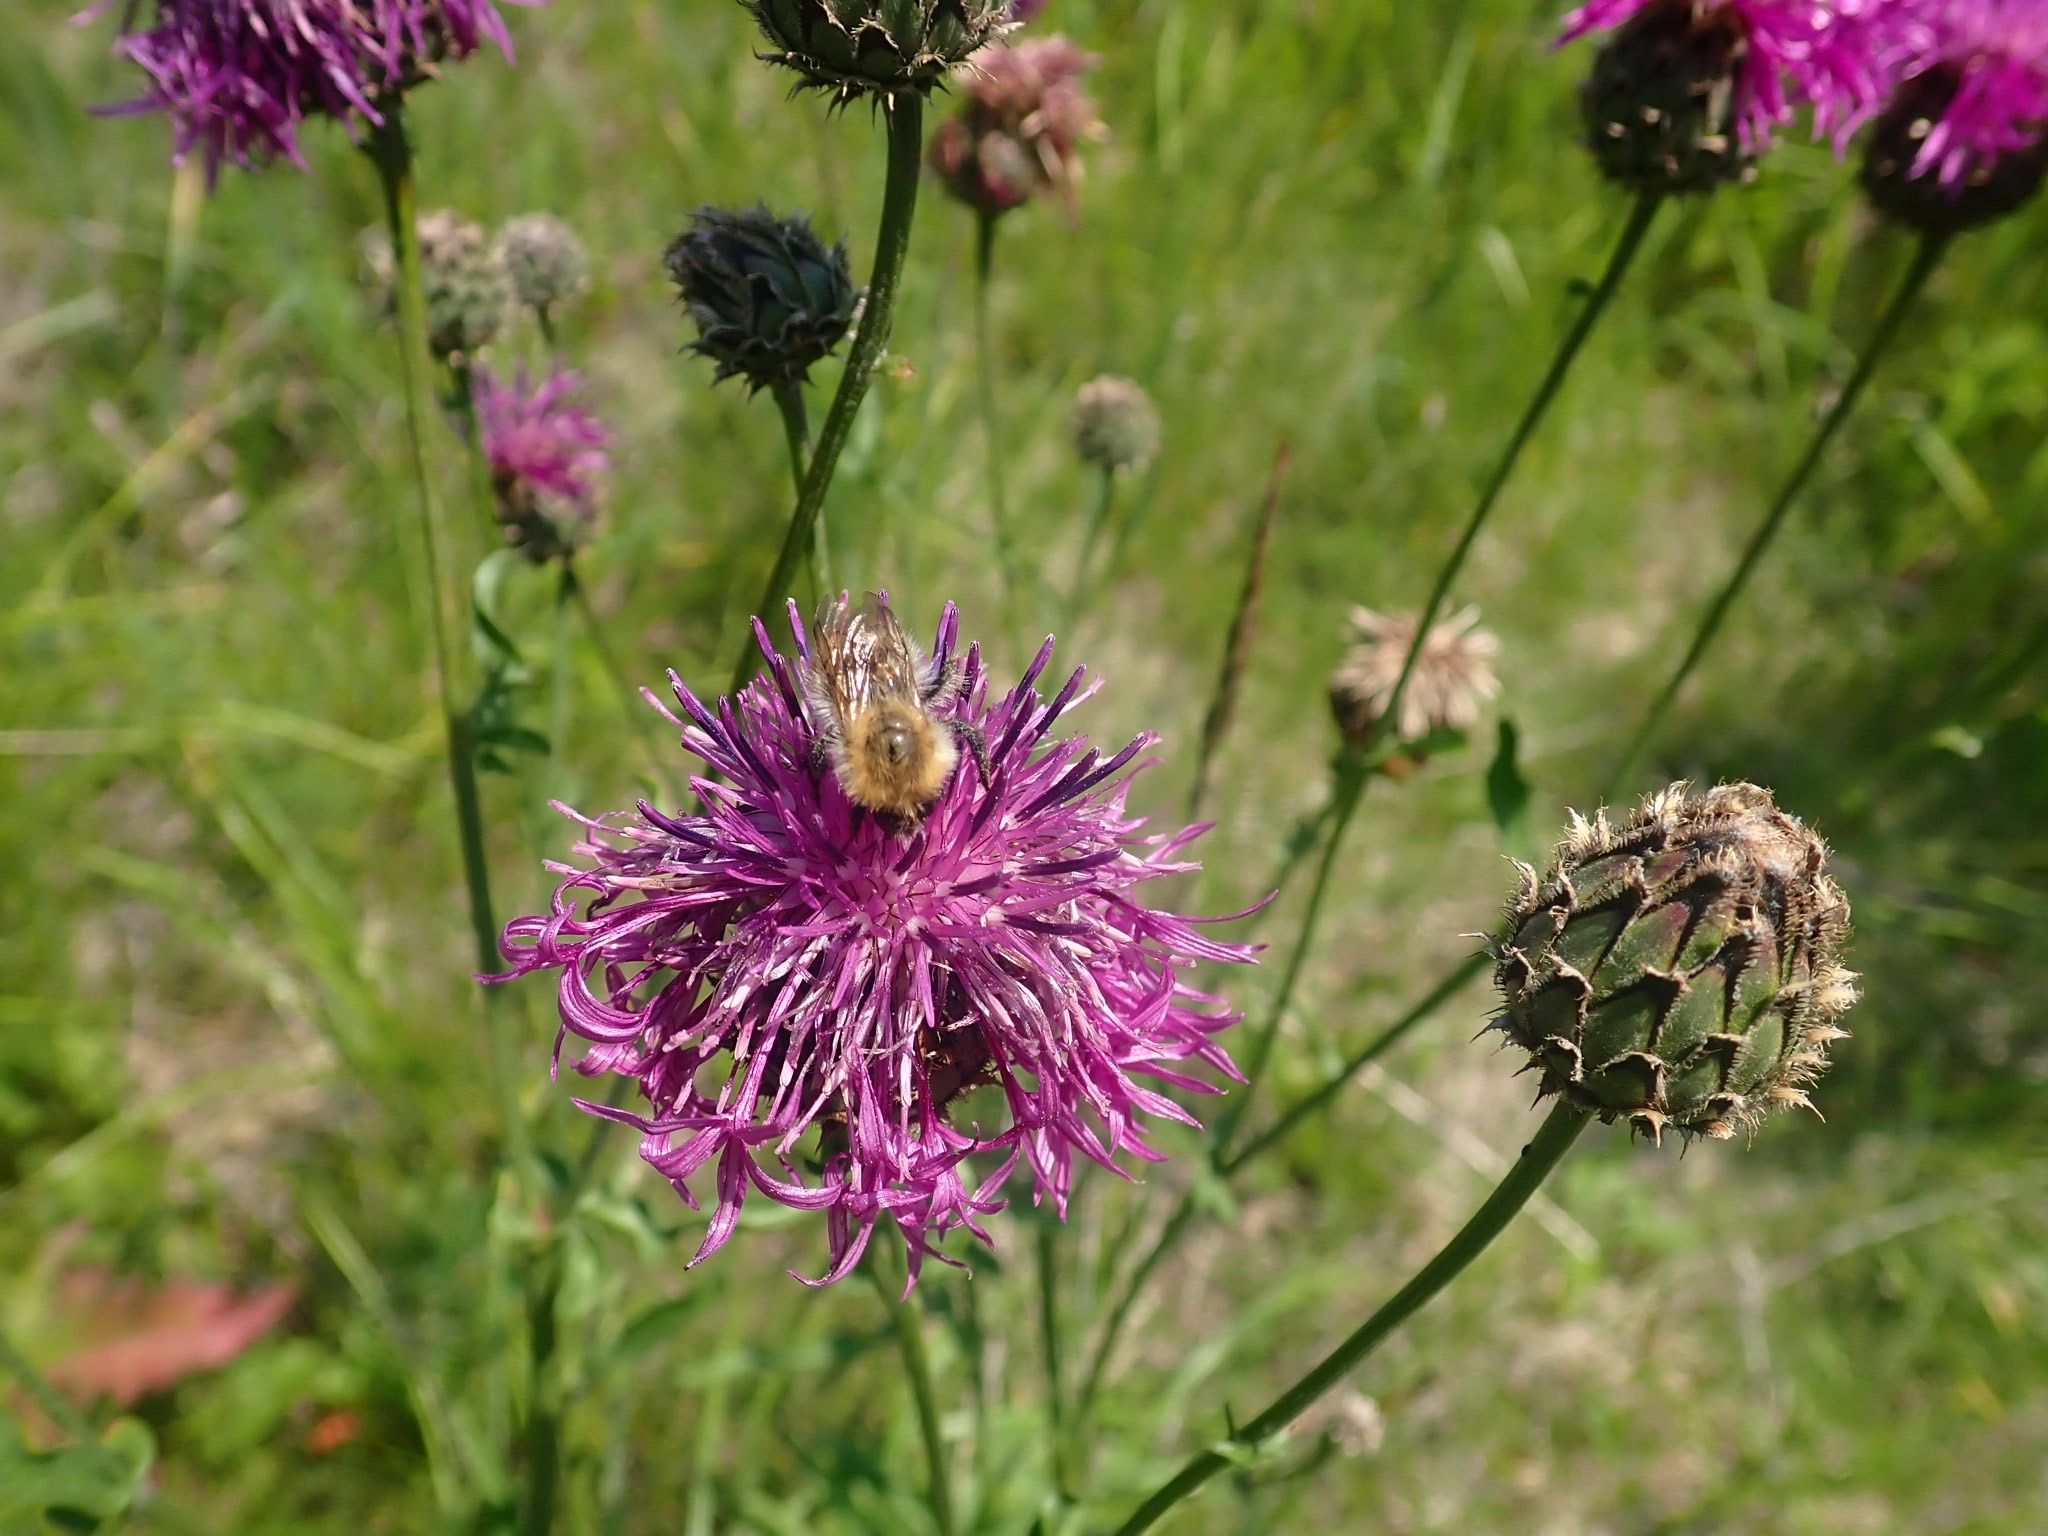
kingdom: Animalia
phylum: Arthropoda
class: Insecta
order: Hymenoptera
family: Apidae
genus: Bombus
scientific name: Bombus pascuorum
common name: Common carder bee
